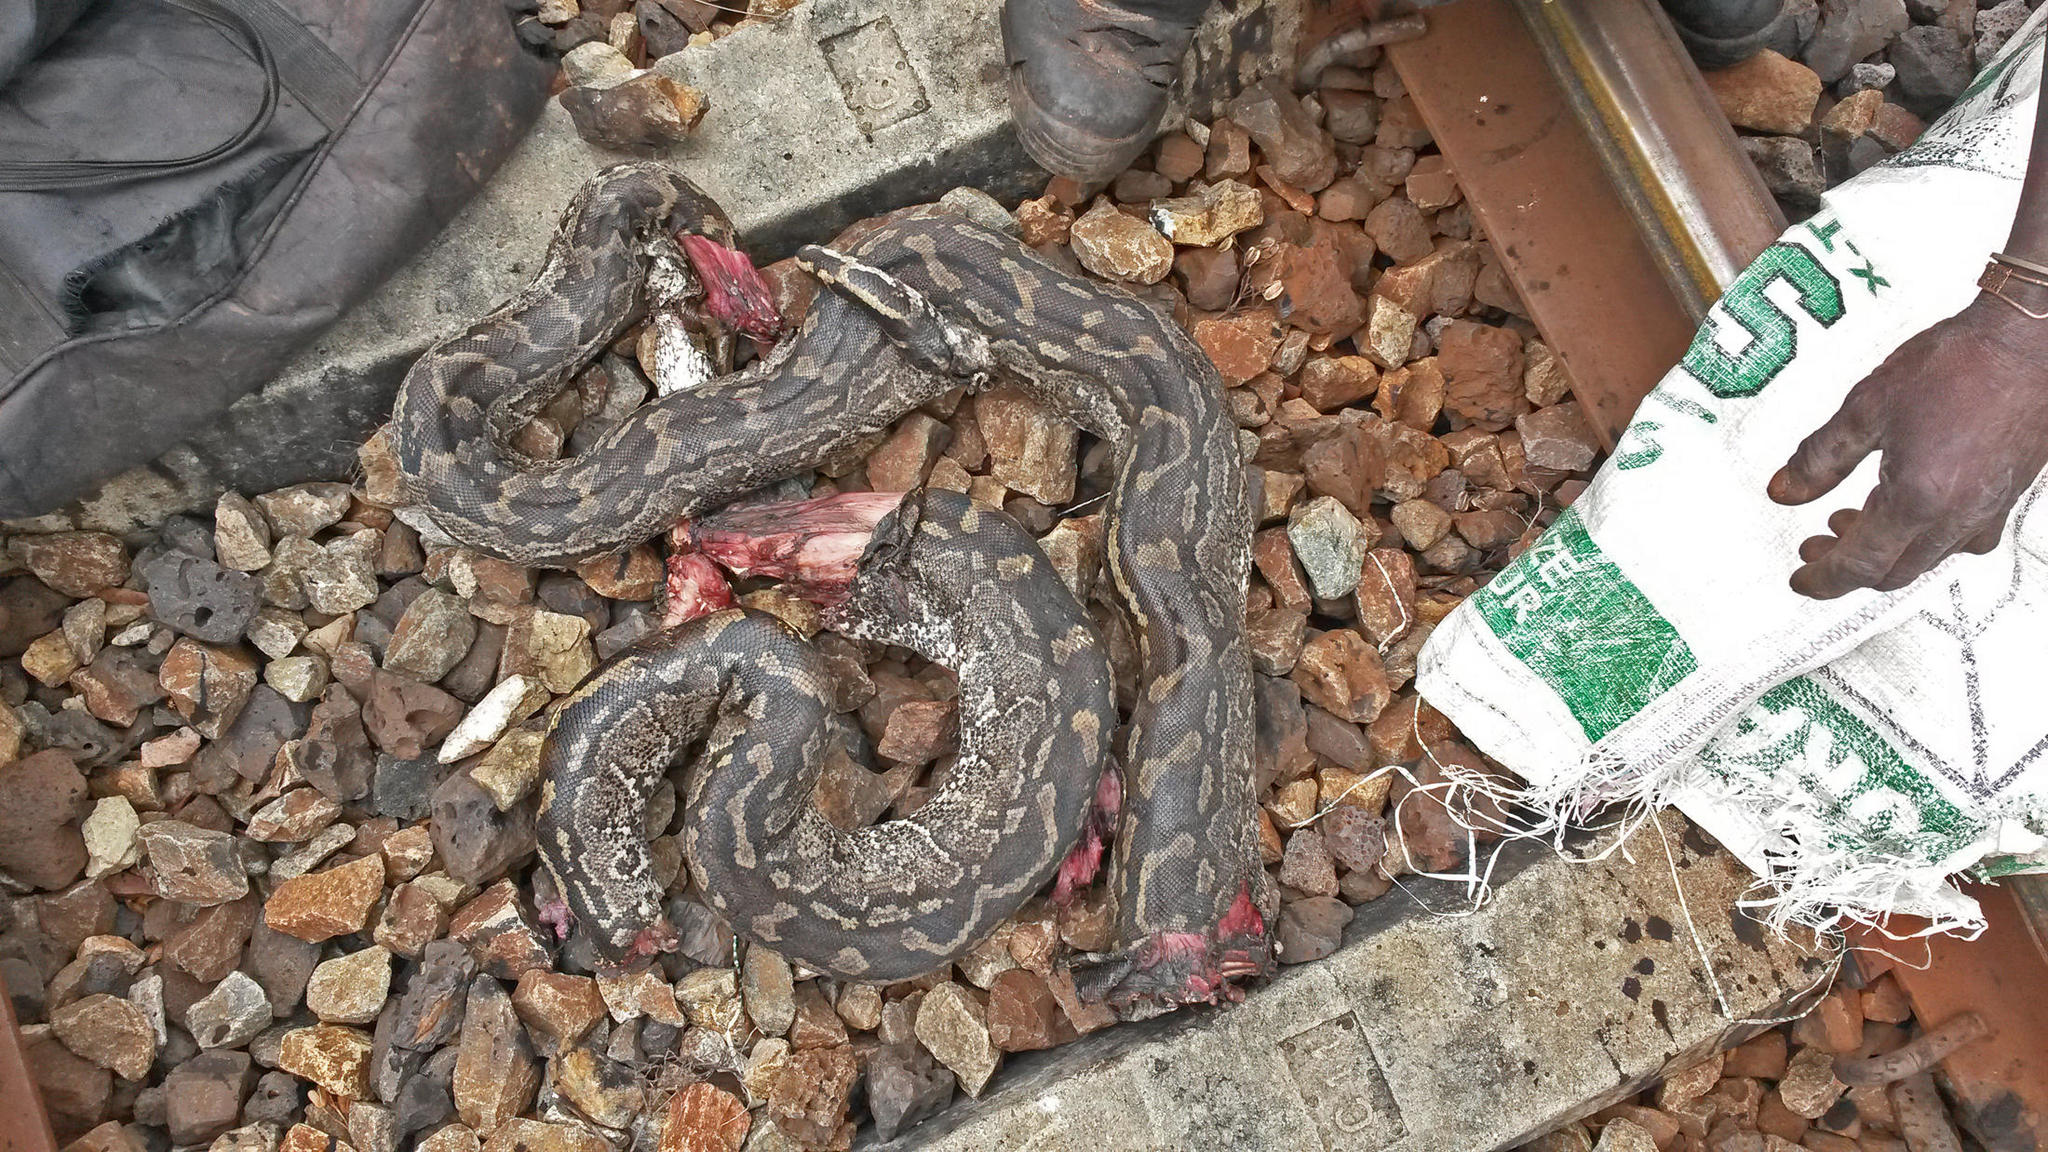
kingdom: Animalia
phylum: Chordata
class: Squamata
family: Pythonidae
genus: Python
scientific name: Python natalensis
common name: Southern african rock python
